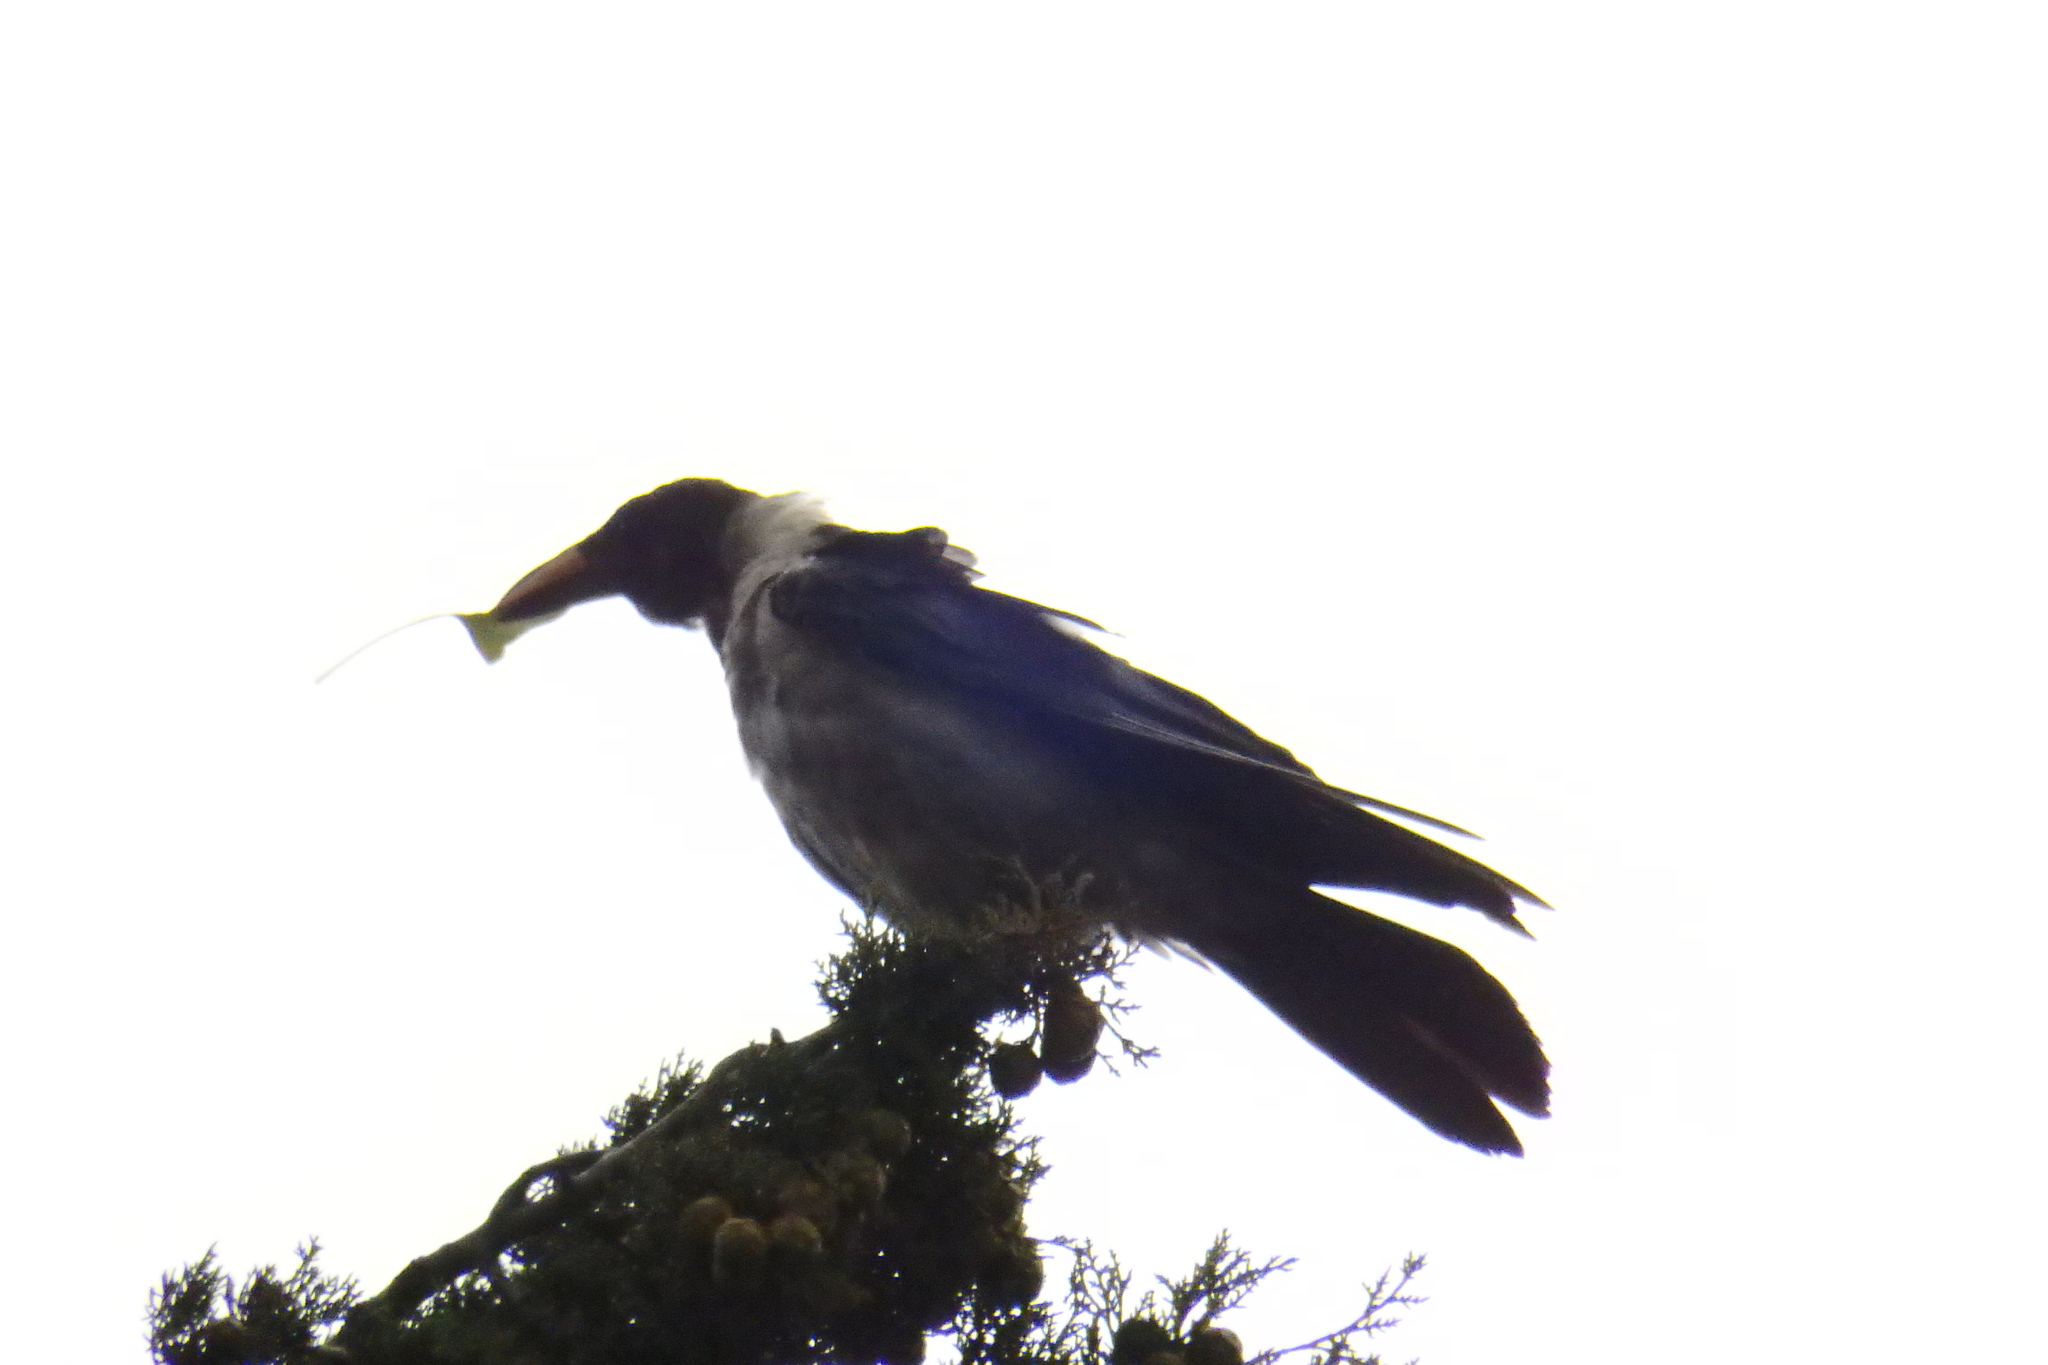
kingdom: Animalia
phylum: Chordata
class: Aves
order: Passeriformes
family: Corvidae
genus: Corvus
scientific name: Corvus cornix
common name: Hooded crow
